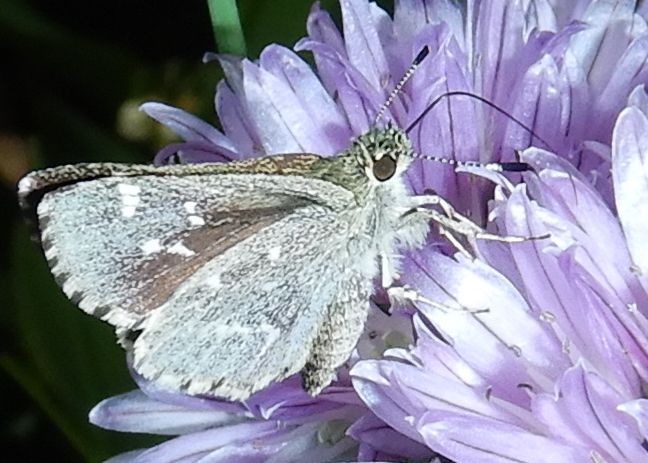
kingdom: Animalia
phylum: Arthropoda
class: Insecta
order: Lepidoptera
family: Hesperiidae
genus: Mastor
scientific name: Mastor hegon
